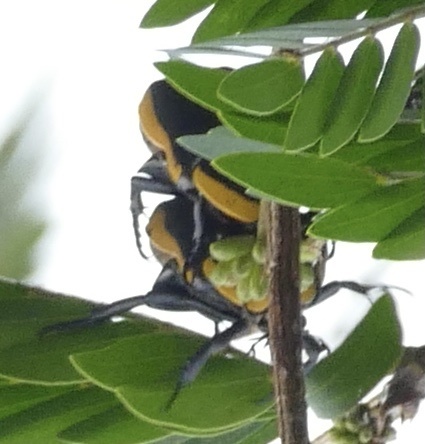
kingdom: Animalia
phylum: Arthropoda
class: Insecta
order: Coleoptera
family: Scarabaeidae
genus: Pachnoda
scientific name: Pachnoda marginata
